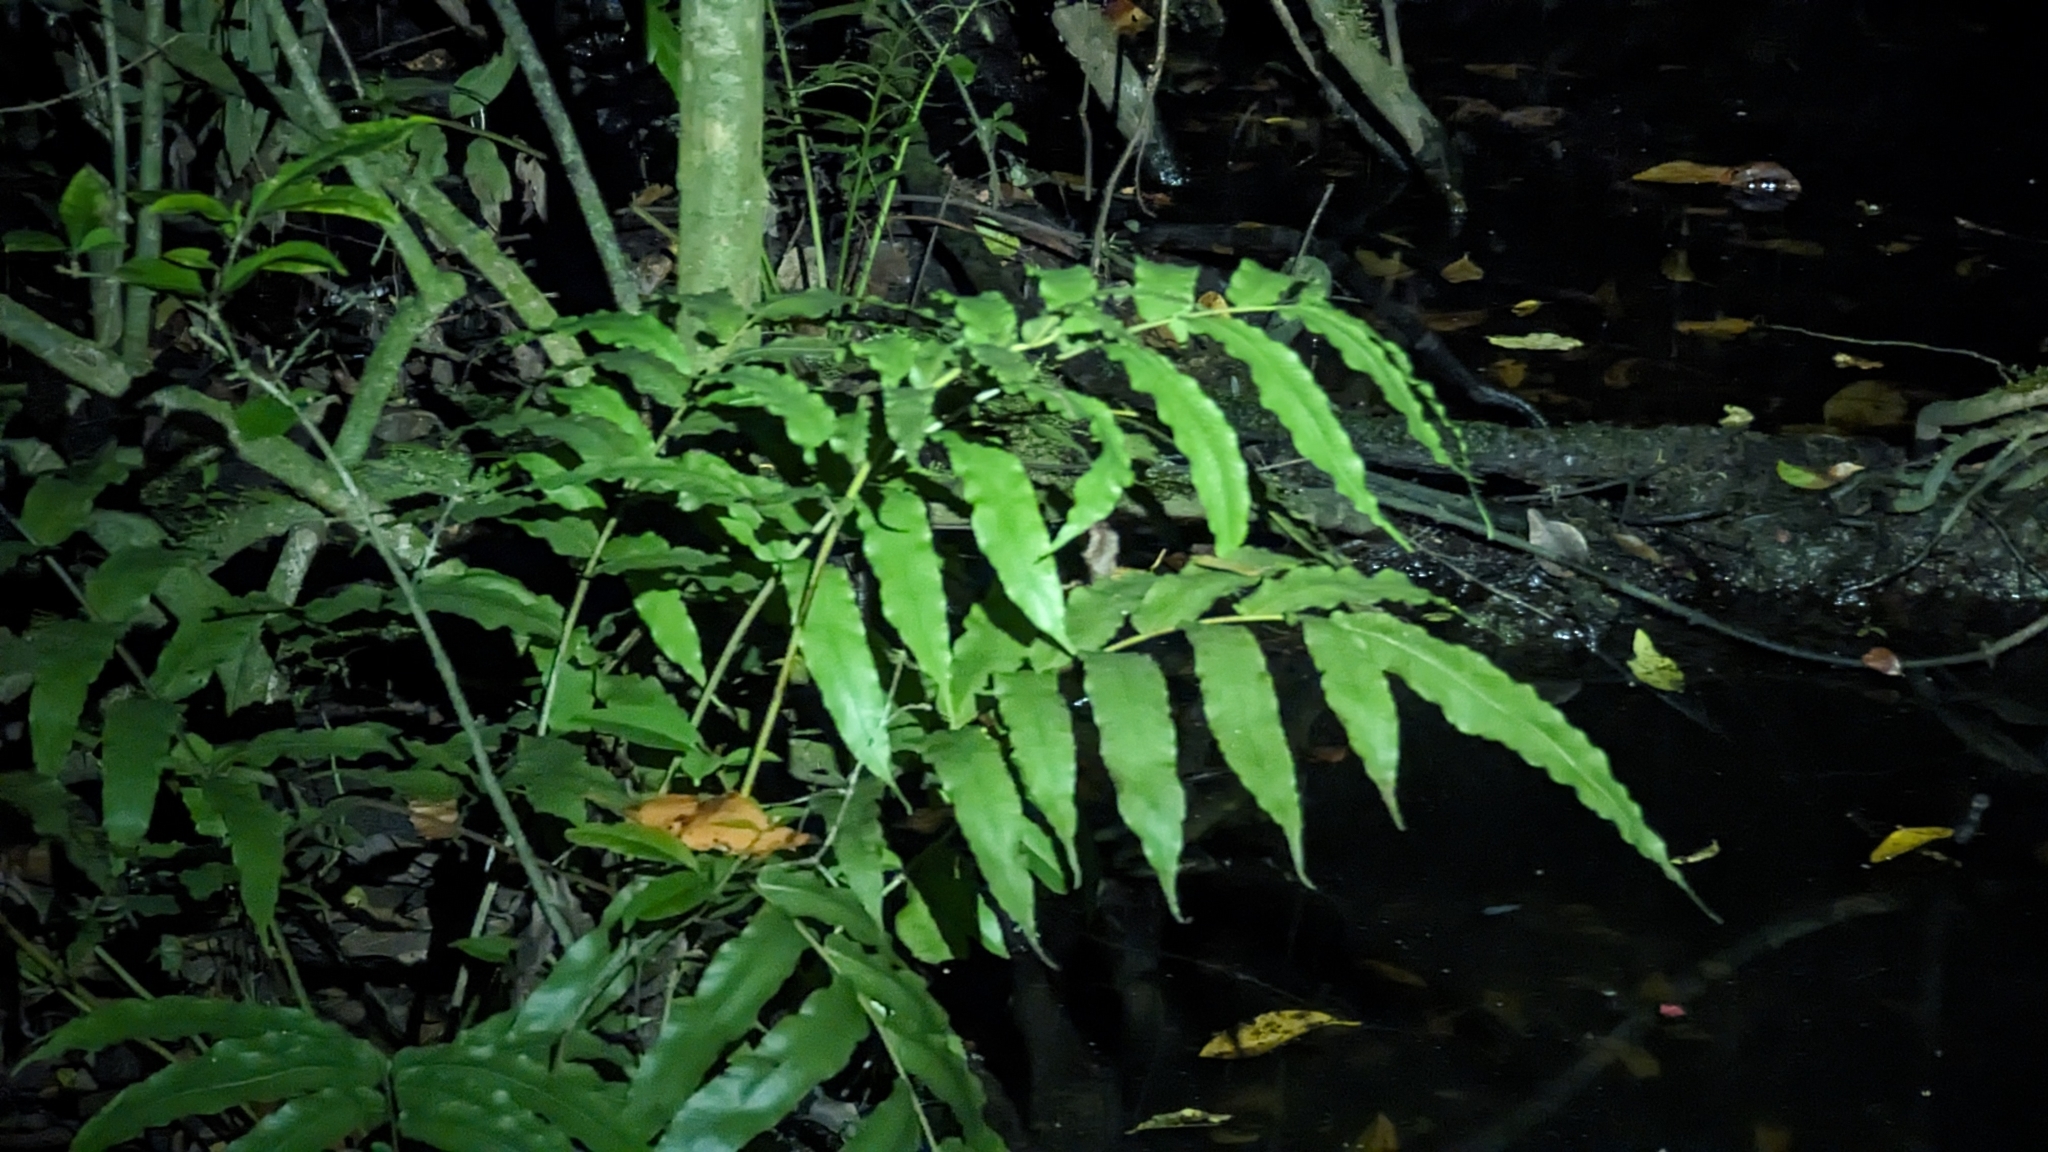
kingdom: Plantae
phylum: Tracheophyta
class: Polypodiopsida
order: Polypodiales
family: Thelypteridaceae
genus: Meniscium
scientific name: Meniscium reticulatum
